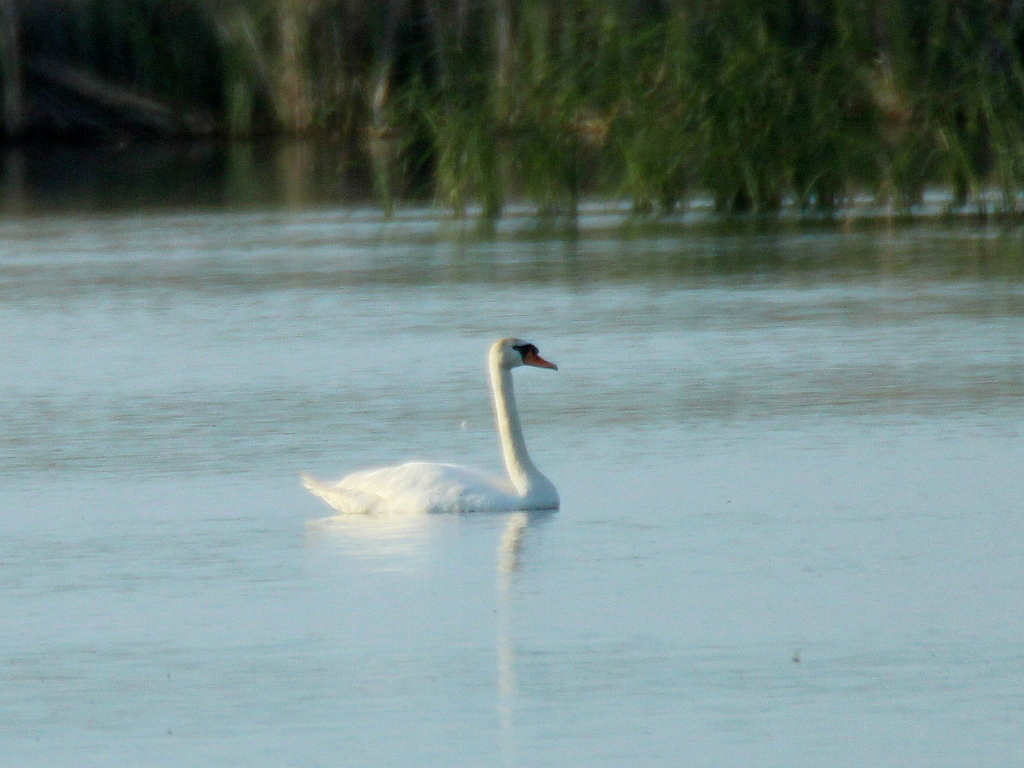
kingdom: Animalia
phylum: Chordata
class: Aves
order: Anseriformes
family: Anatidae
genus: Cygnus
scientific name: Cygnus olor
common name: Mute swan
